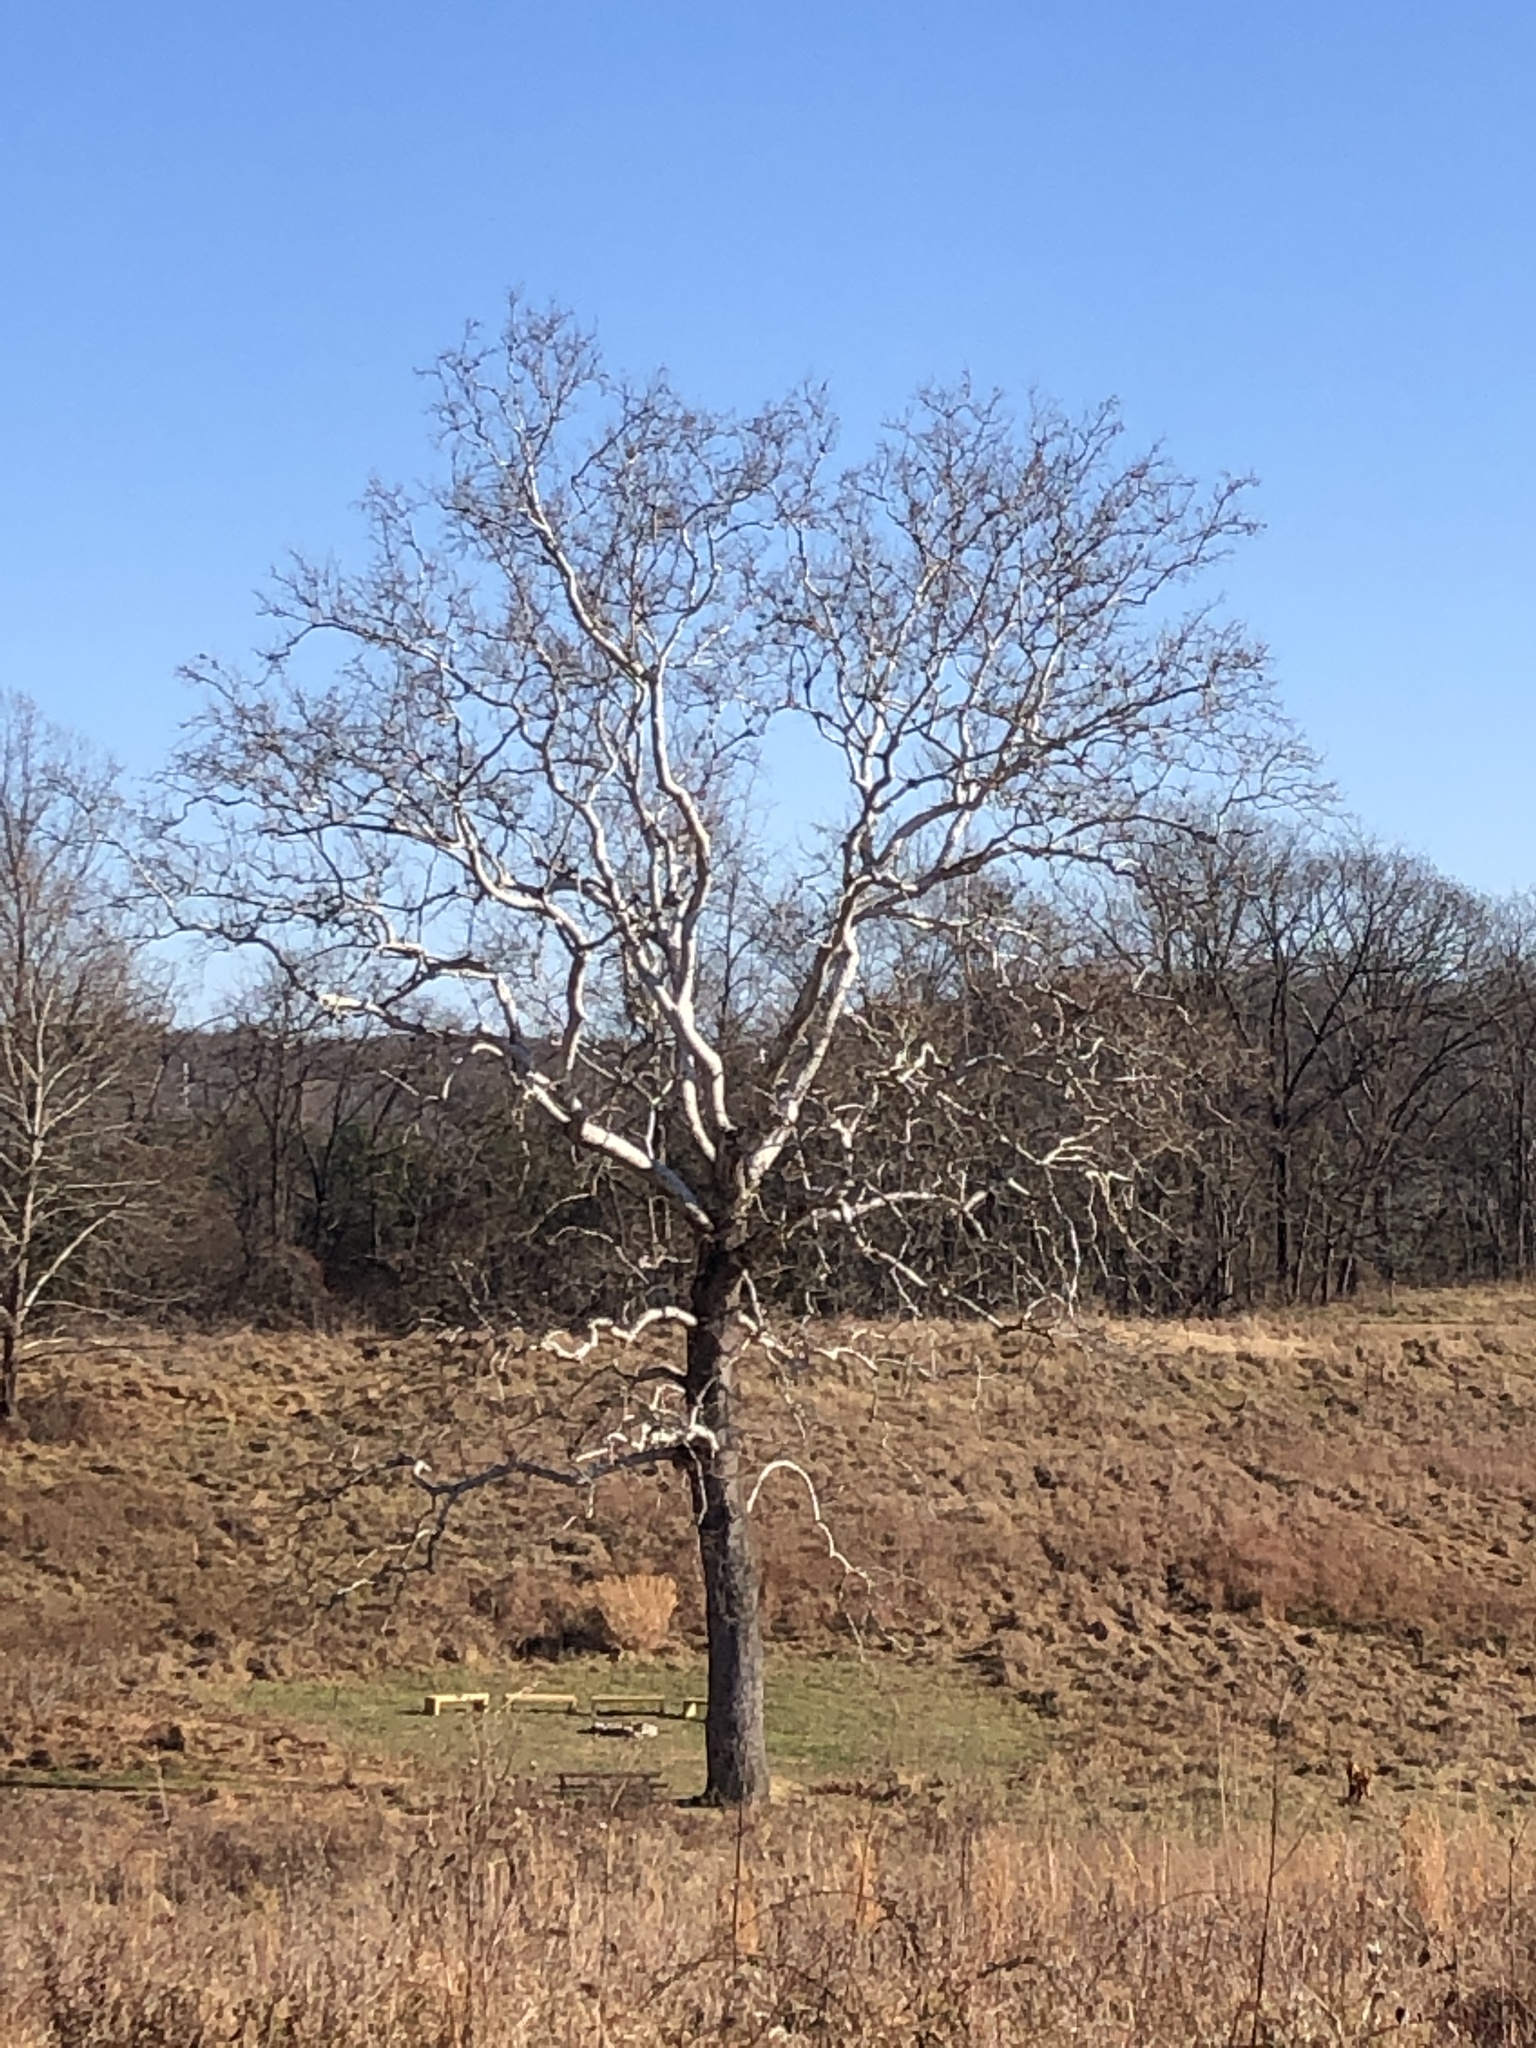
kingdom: Plantae
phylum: Tracheophyta
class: Magnoliopsida
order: Proteales
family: Platanaceae
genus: Platanus
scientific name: Platanus occidentalis
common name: American sycamore
